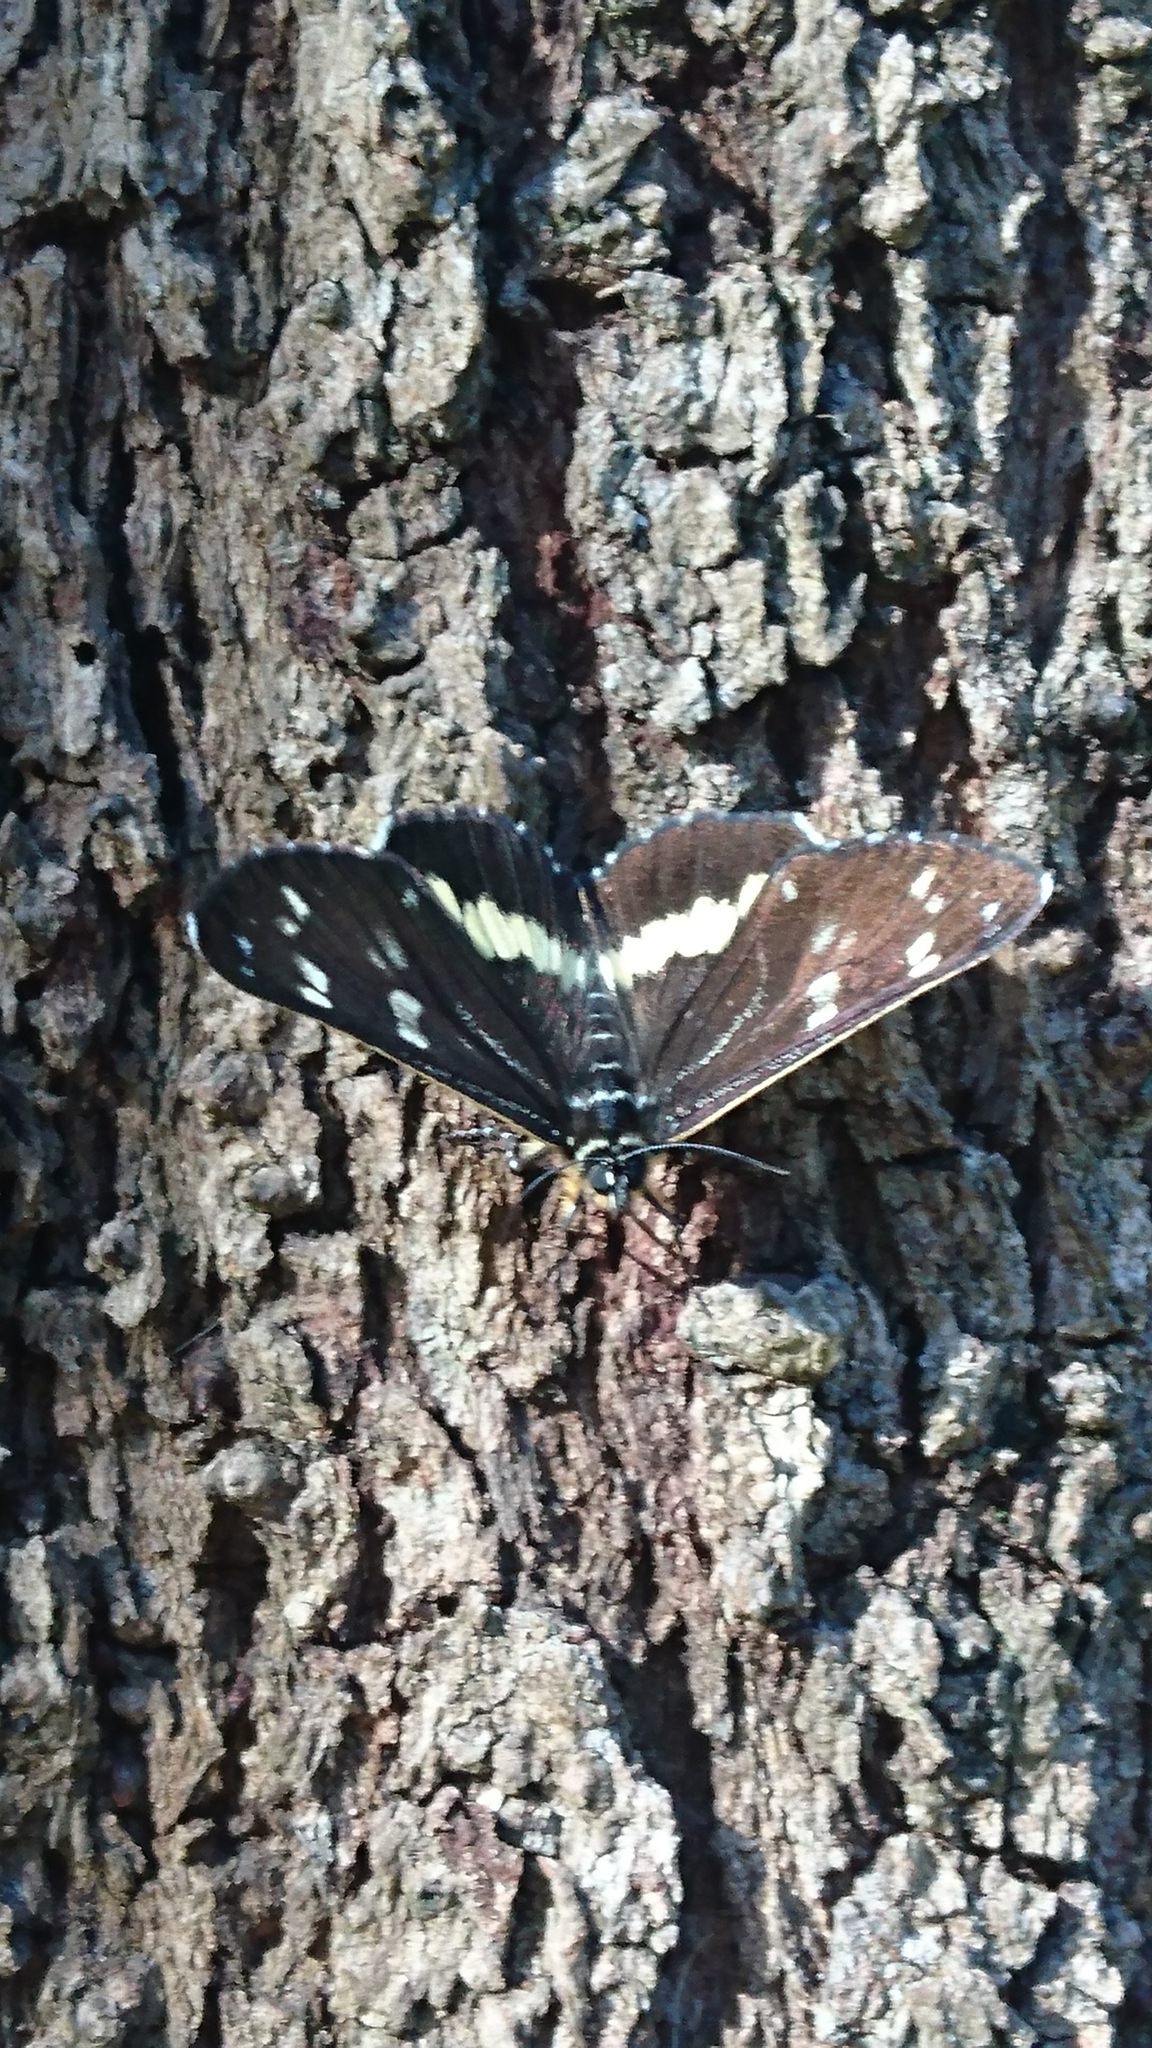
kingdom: Animalia
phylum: Arthropoda
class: Insecta
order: Lepidoptera
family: Noctuidae
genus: Cruria
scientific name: Cruria synopla
